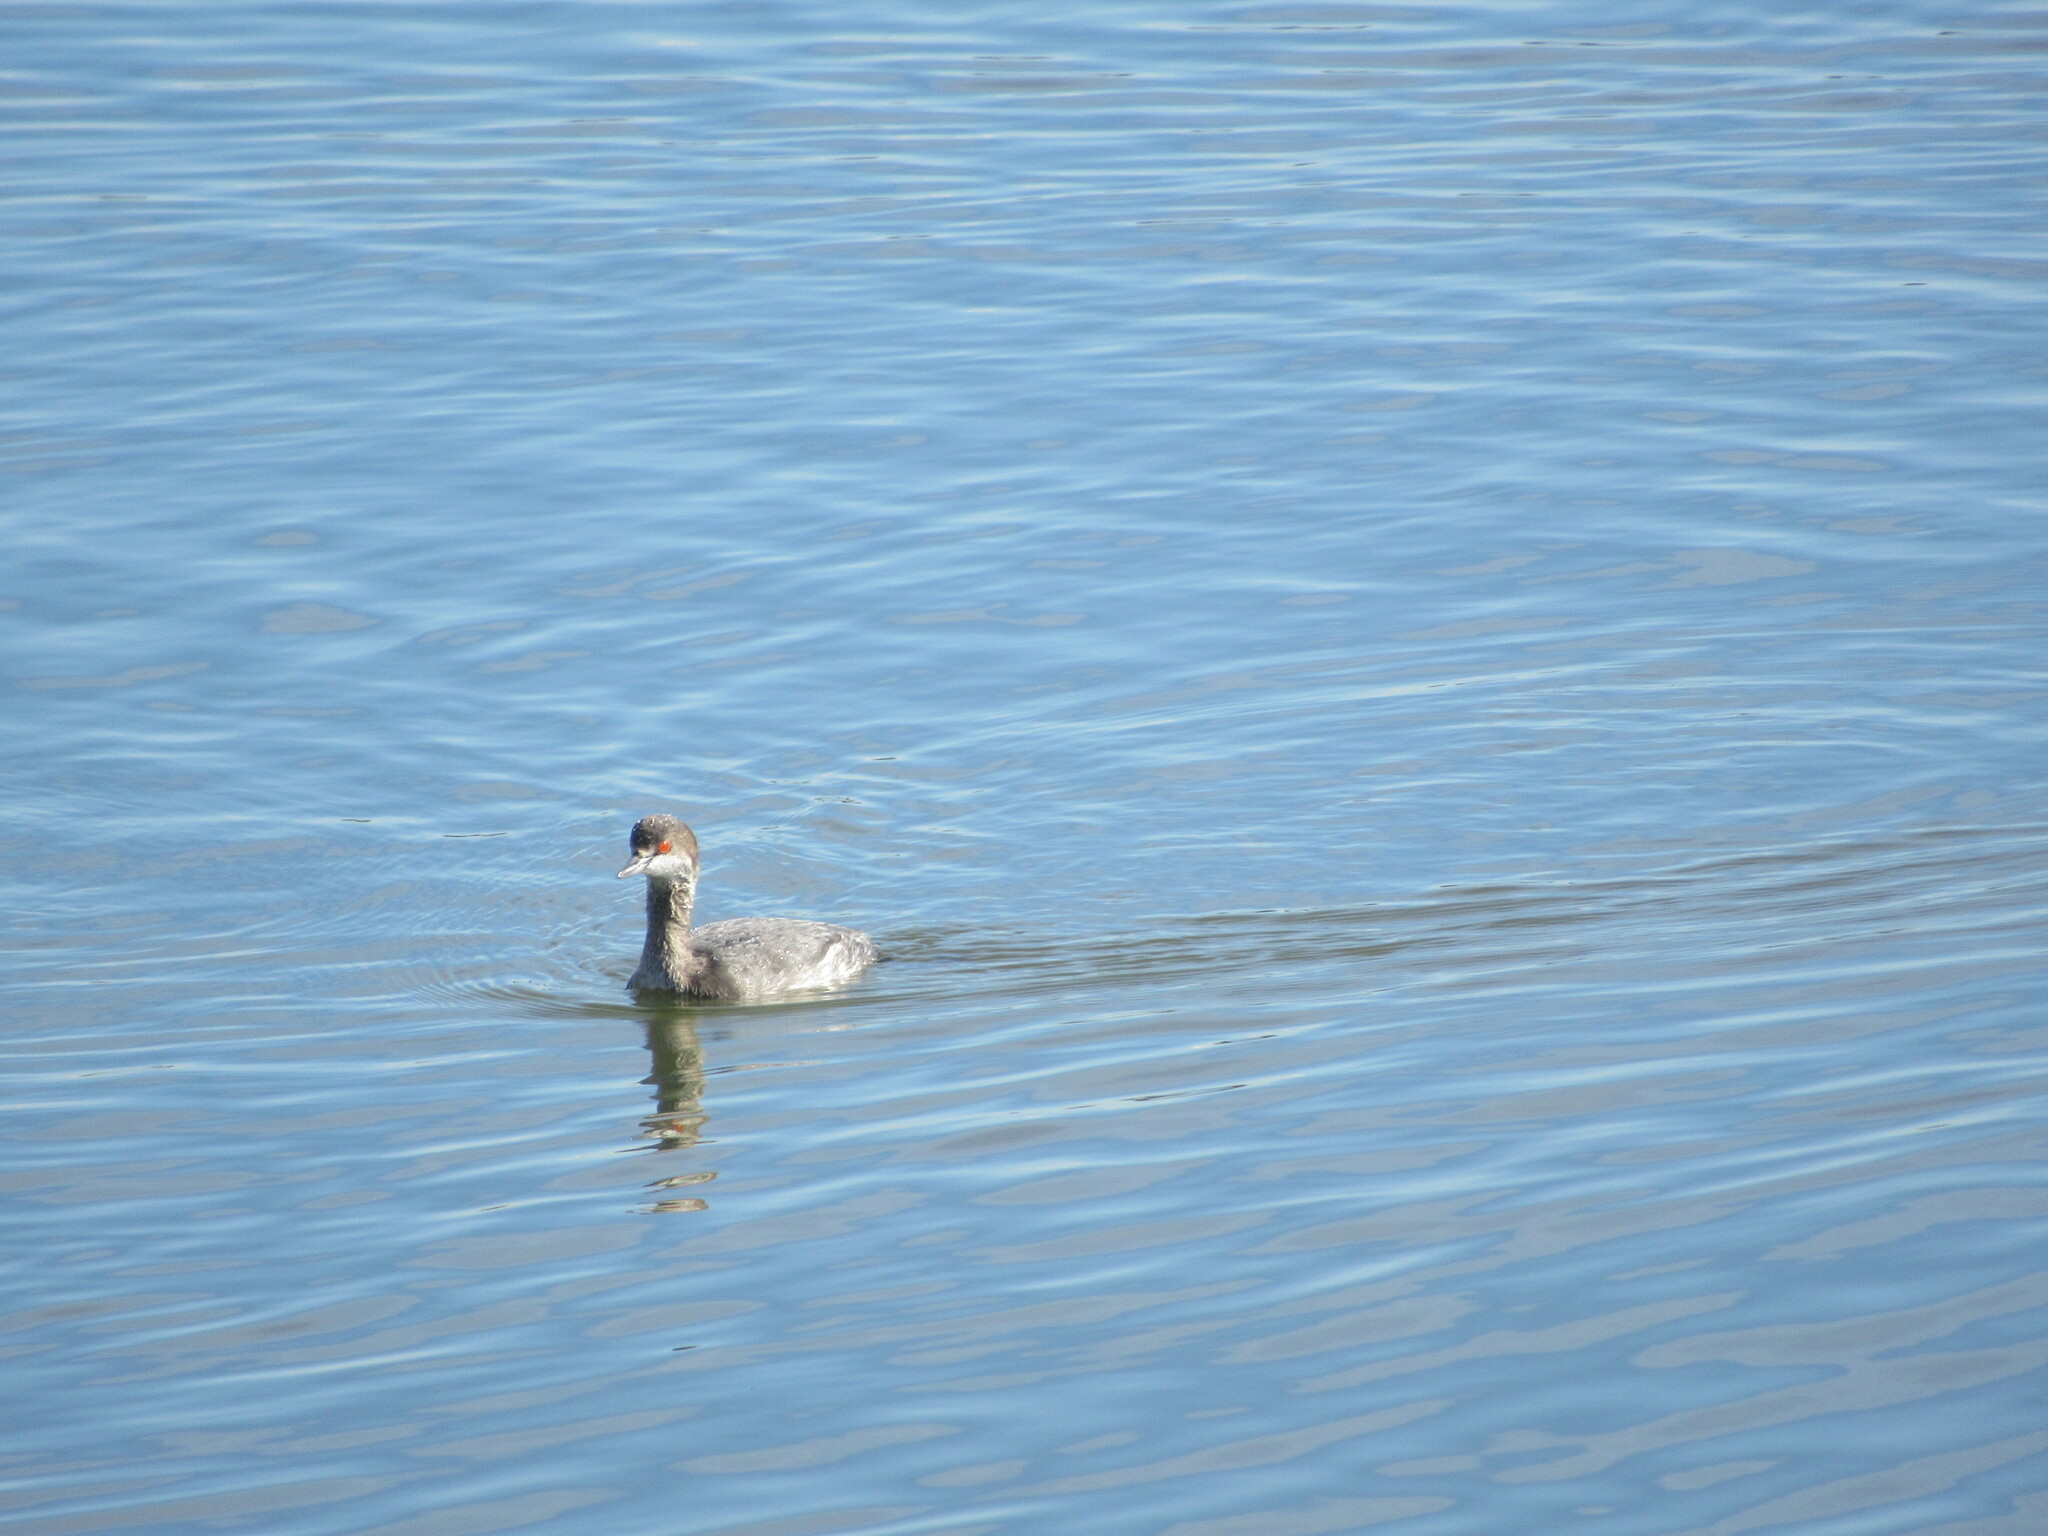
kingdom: Animalia
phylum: Chordata
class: Aves
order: Podicipediformes
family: Podicipedidae
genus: Podiceps
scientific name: Podiceps nigricollis
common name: Black-necked grebe
